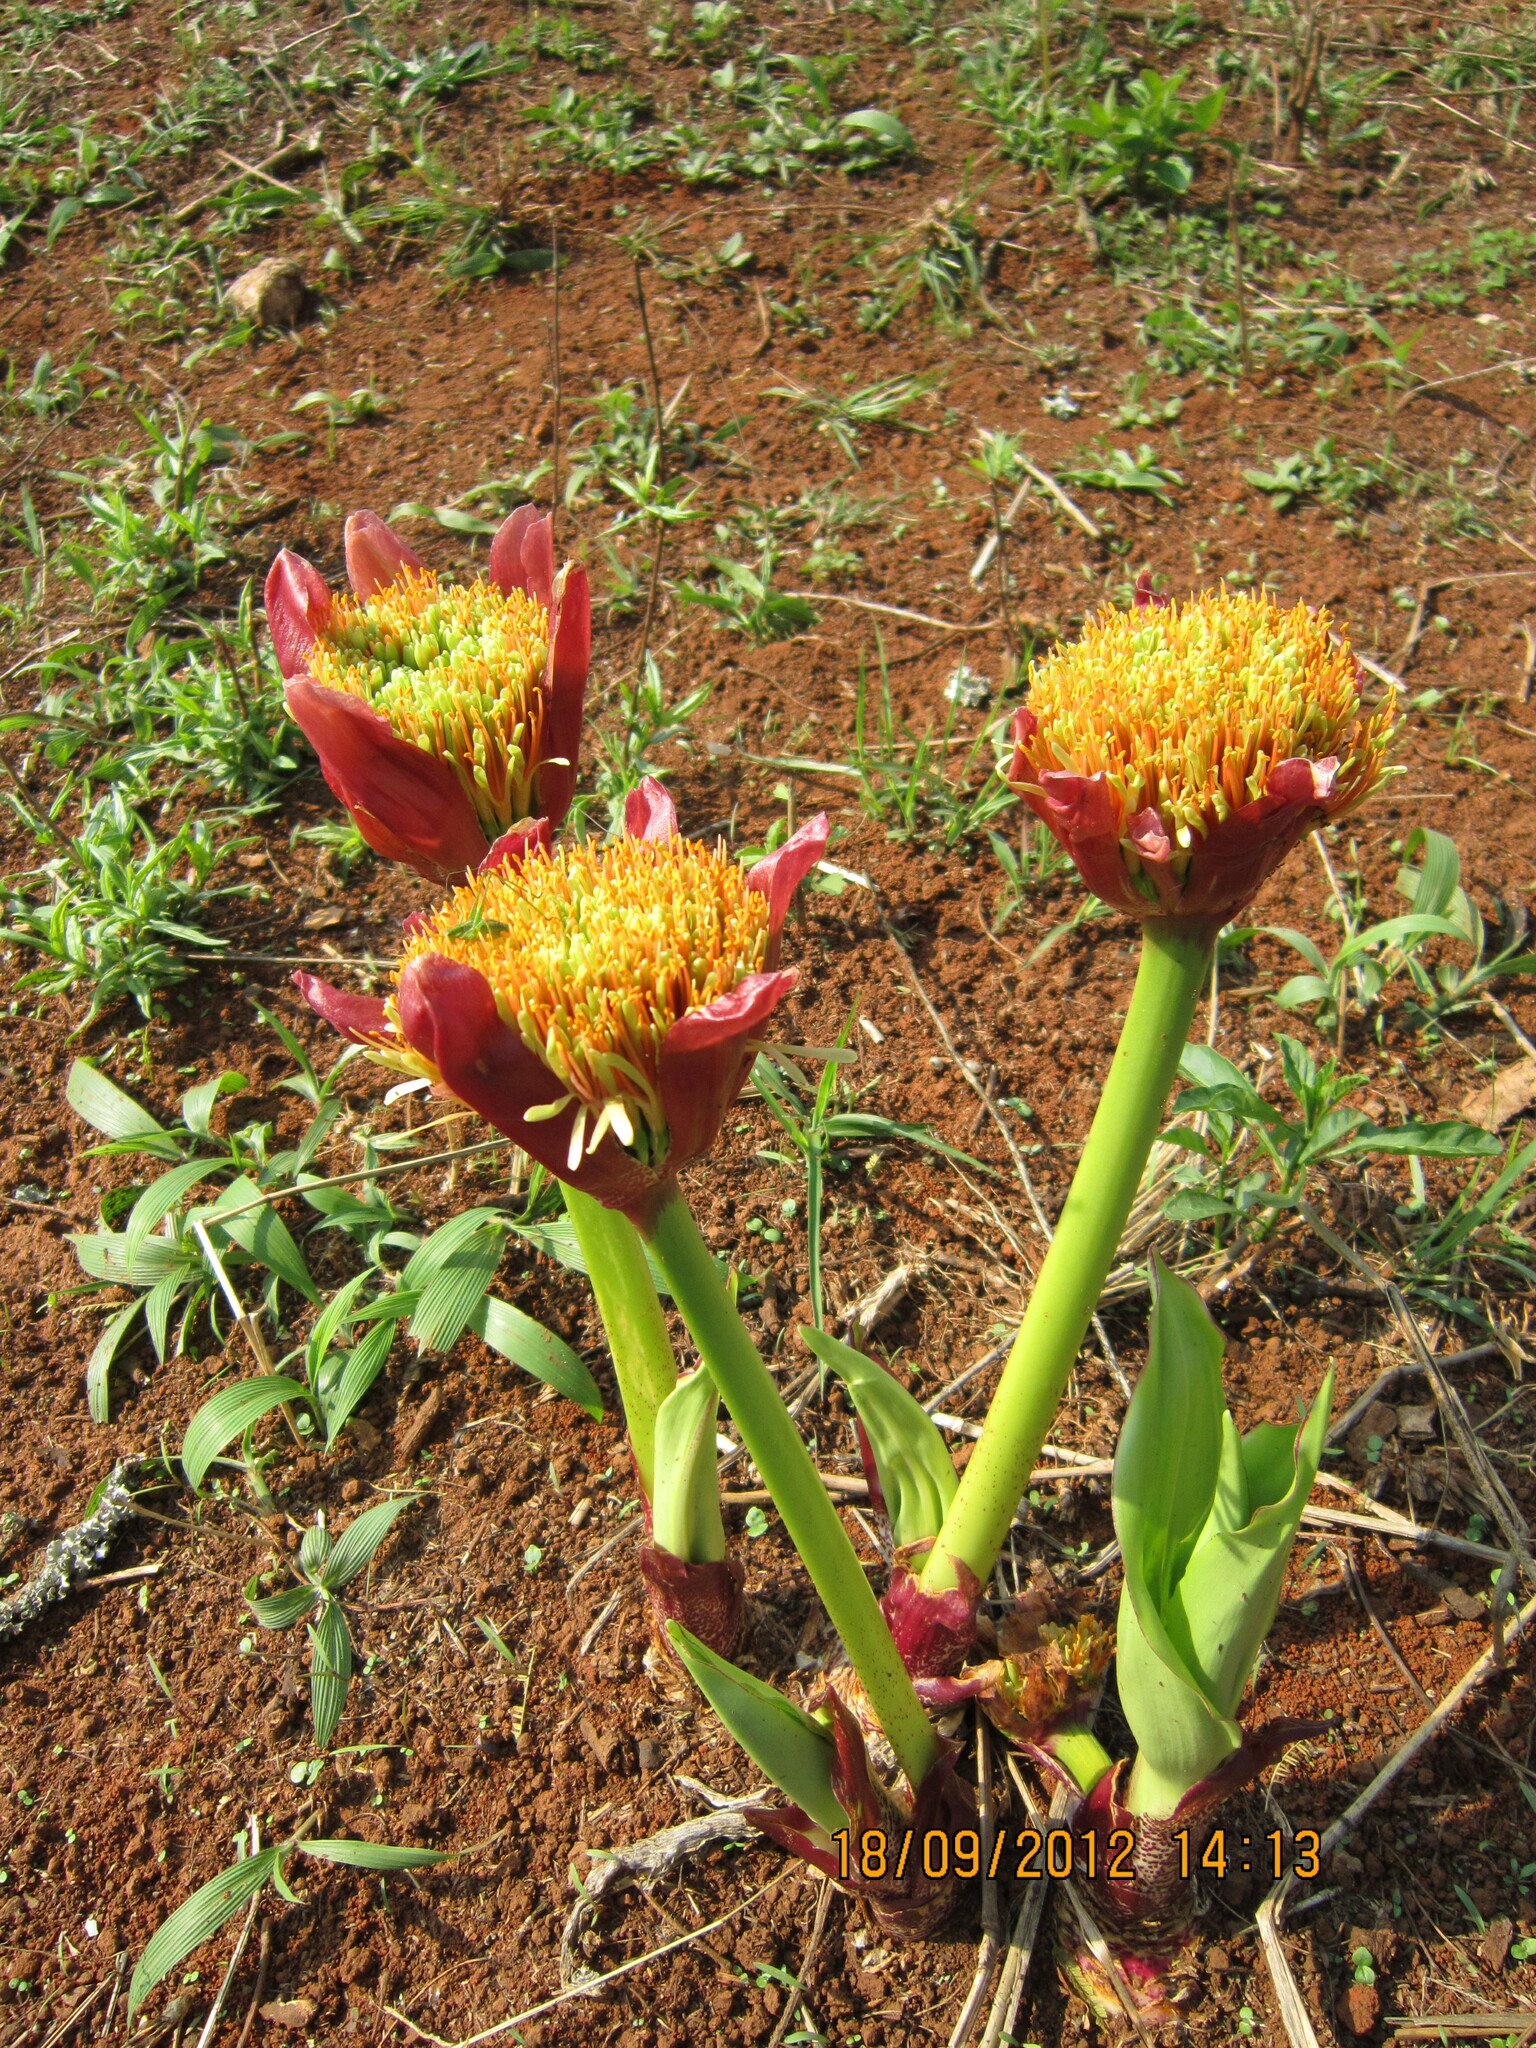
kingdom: Plantae
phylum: Tracheophyta
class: Liliopsida
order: Asparagales
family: Amaryllidaceae
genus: Scadoxus
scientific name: Scadoxus puniceus
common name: Royal-paintbrush
